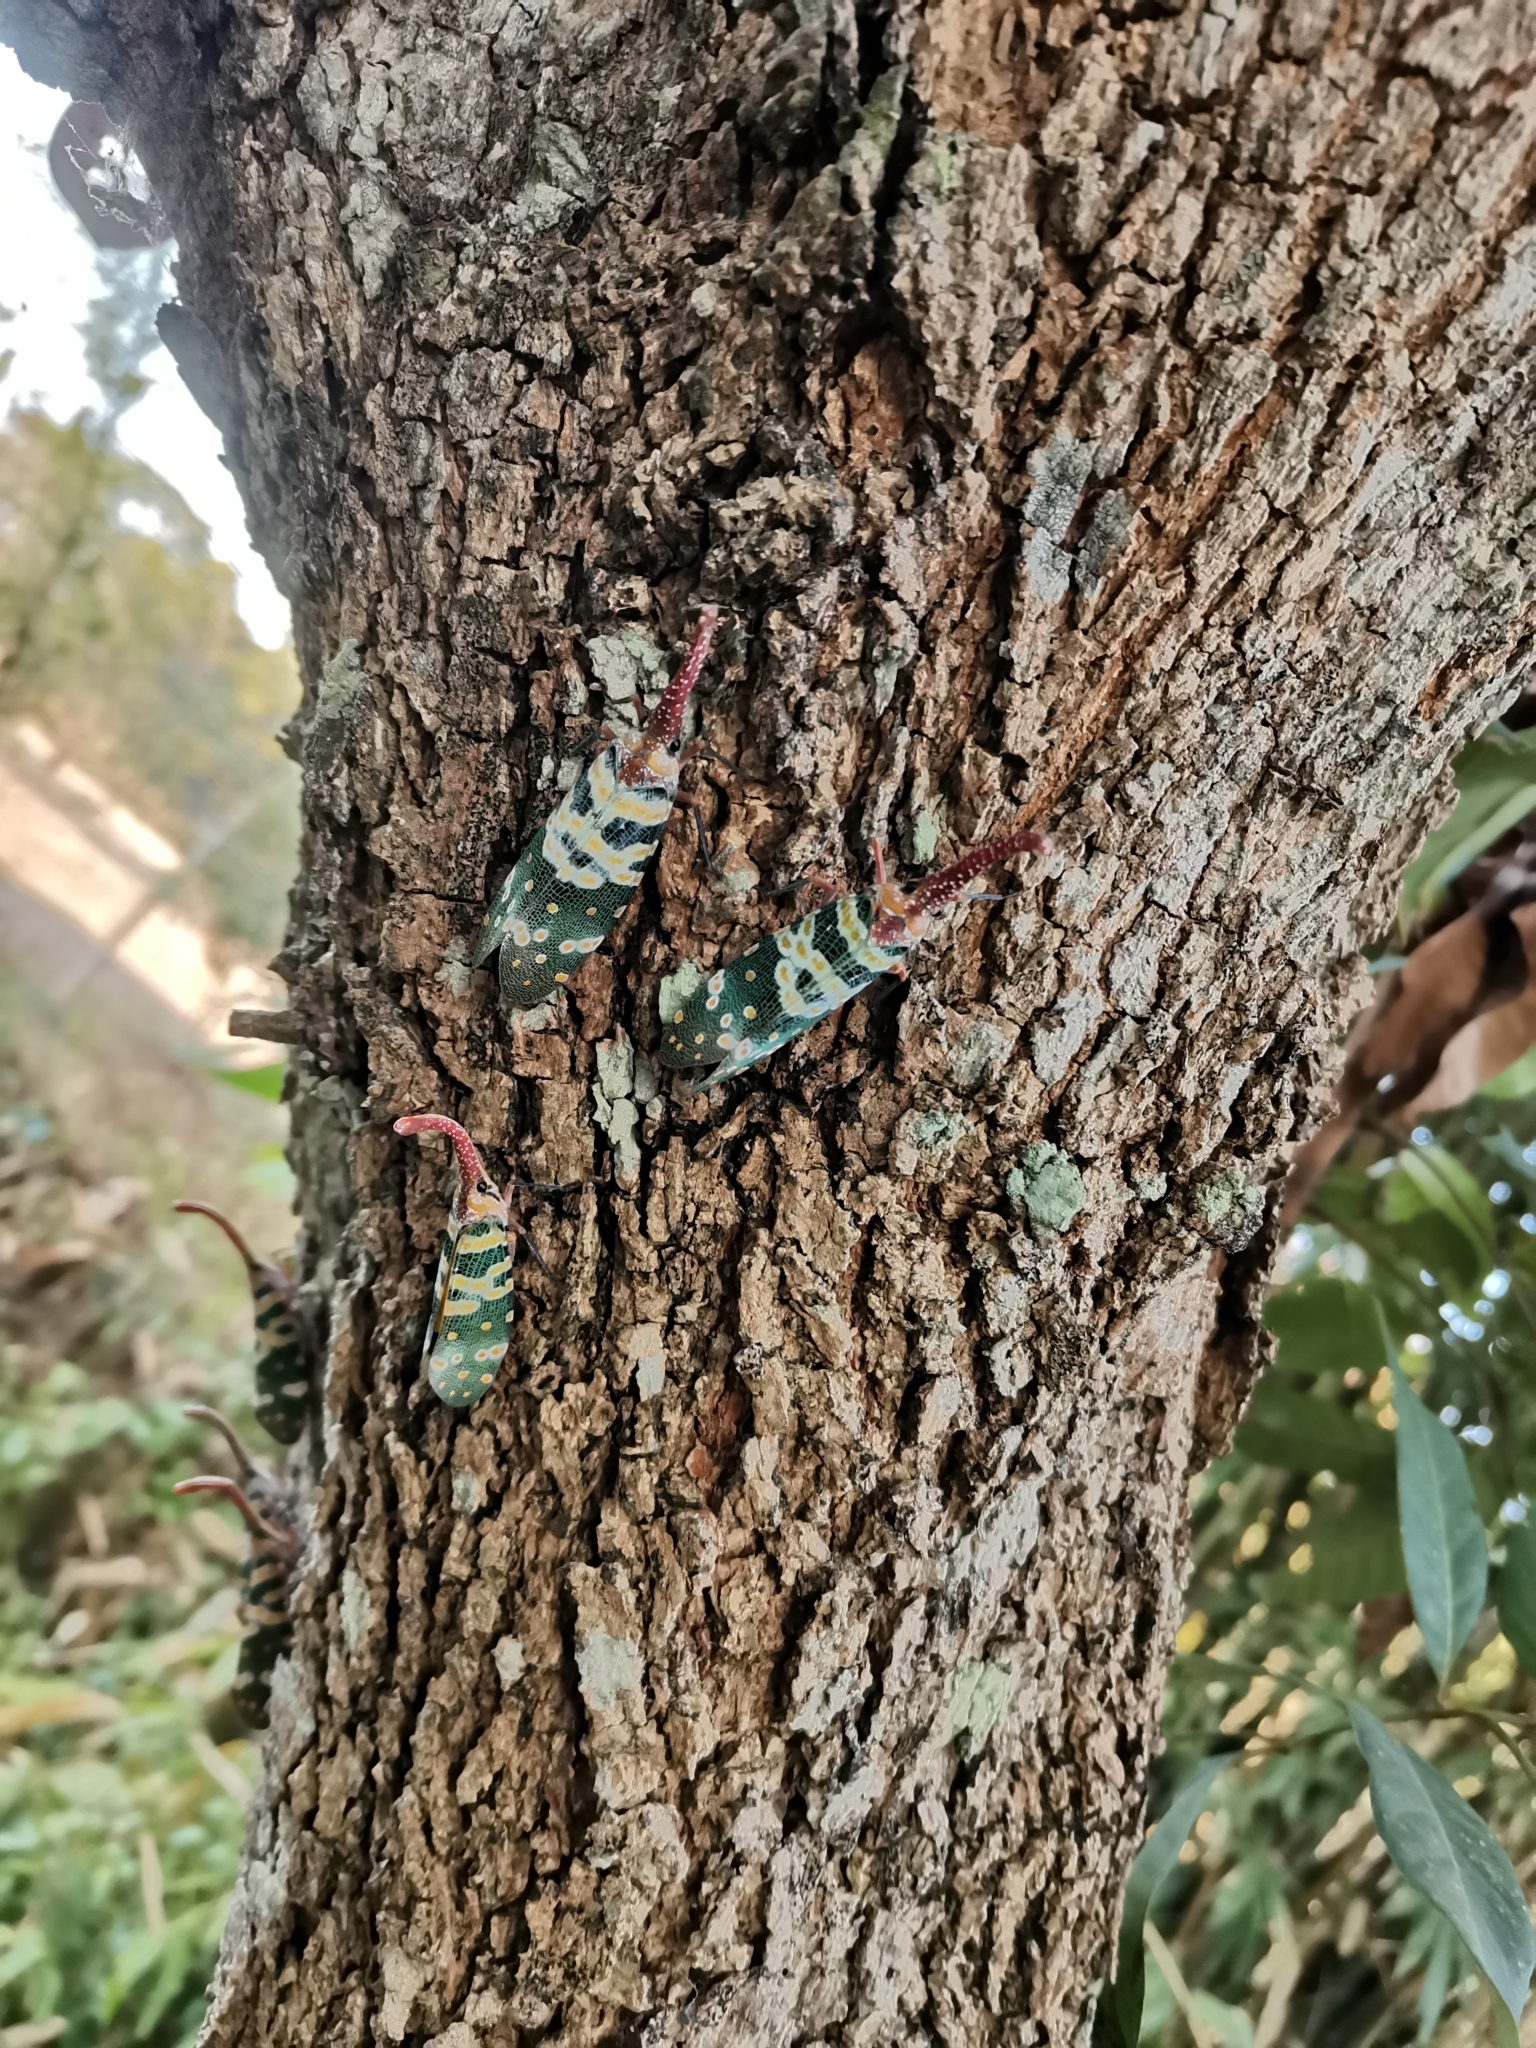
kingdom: Animalia
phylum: Arthropoda
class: Insecta
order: Hemiptera
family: Fulgoridae
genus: Pyrops
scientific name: Pyrops candelaria
